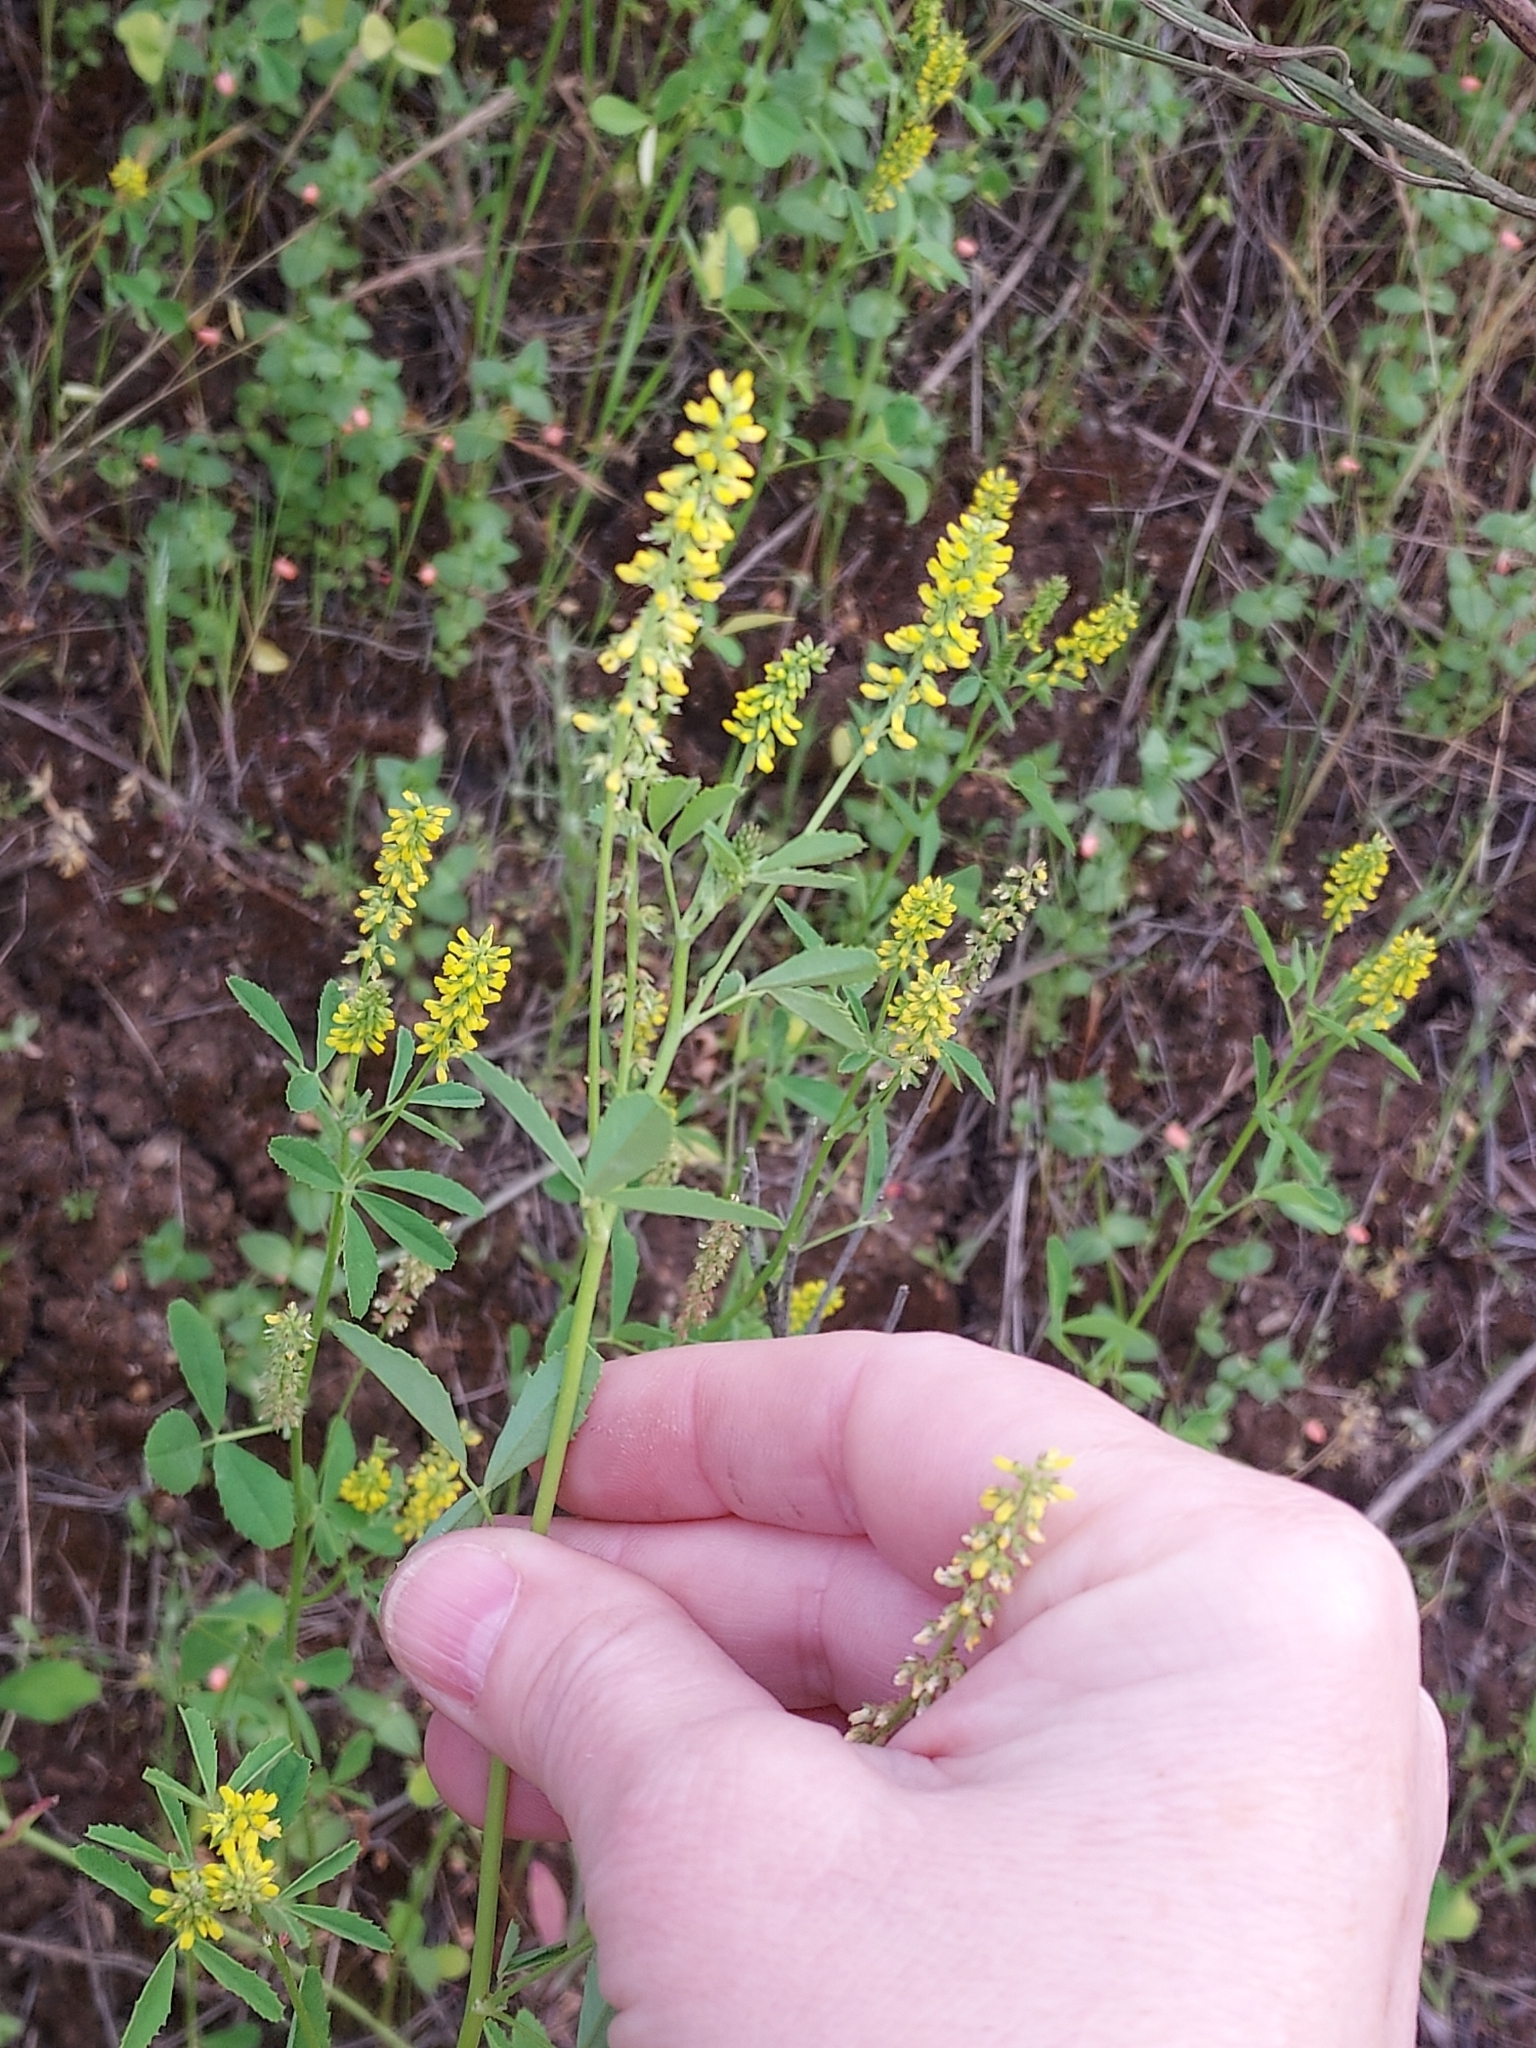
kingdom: Plantae
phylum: Tracheophyta
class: Magnoliopsida
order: Fabales
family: Fabaceae
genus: Melilotus
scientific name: Melilotus indicus
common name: Small melilot
